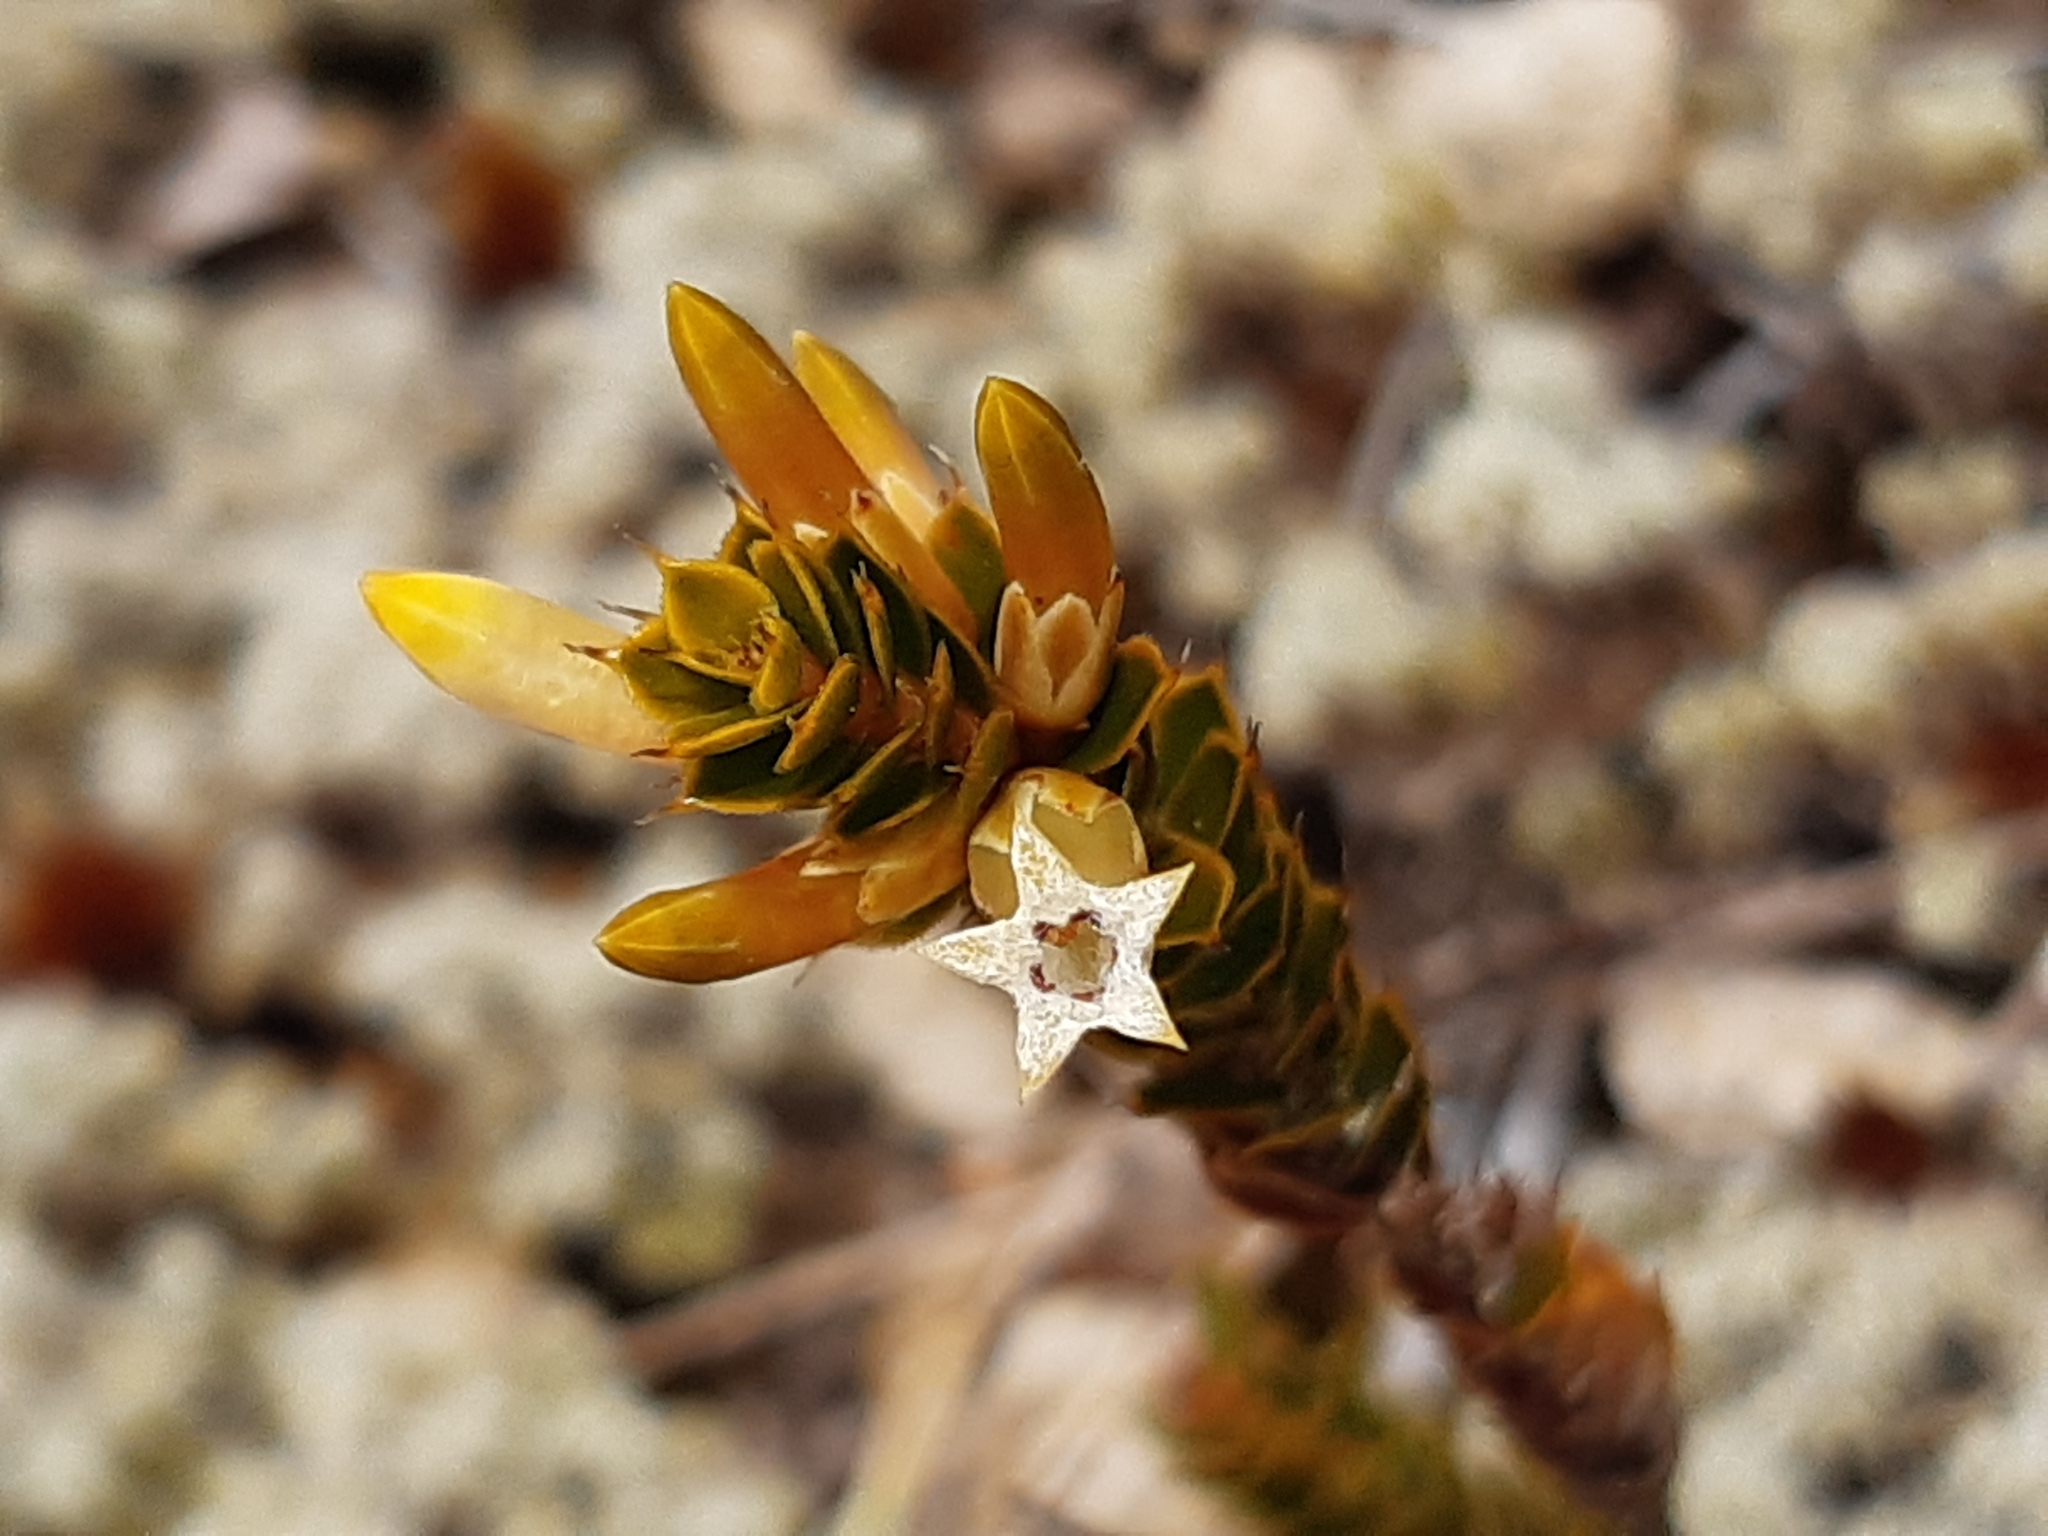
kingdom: Plantae
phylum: Tracheophyta
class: Magnoliopsida
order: Ericales
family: Ericaceae
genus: Styphelia
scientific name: Styphelia nesophila
